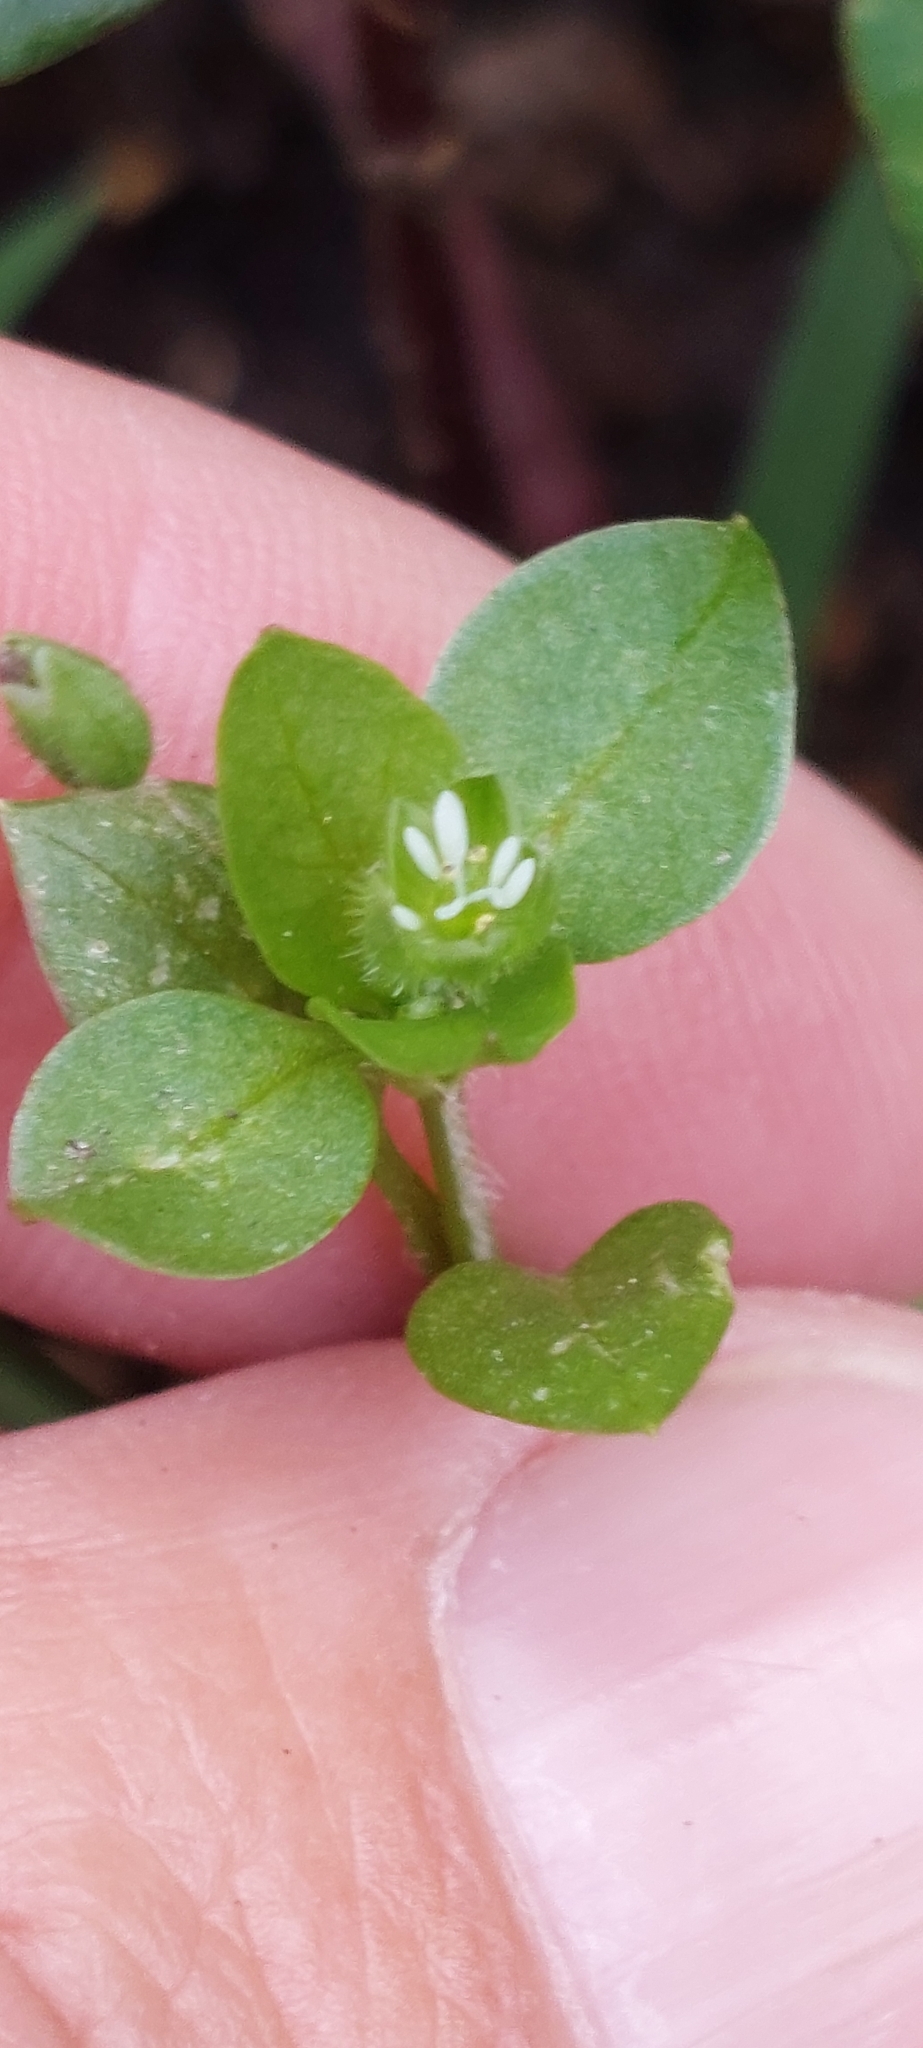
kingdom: Plantae
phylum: Tracheophyta
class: Magnoliopsida
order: Caryophyllales
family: Caryophyllaceae
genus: Stellaria
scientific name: Stellaria media
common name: Common chickweed
